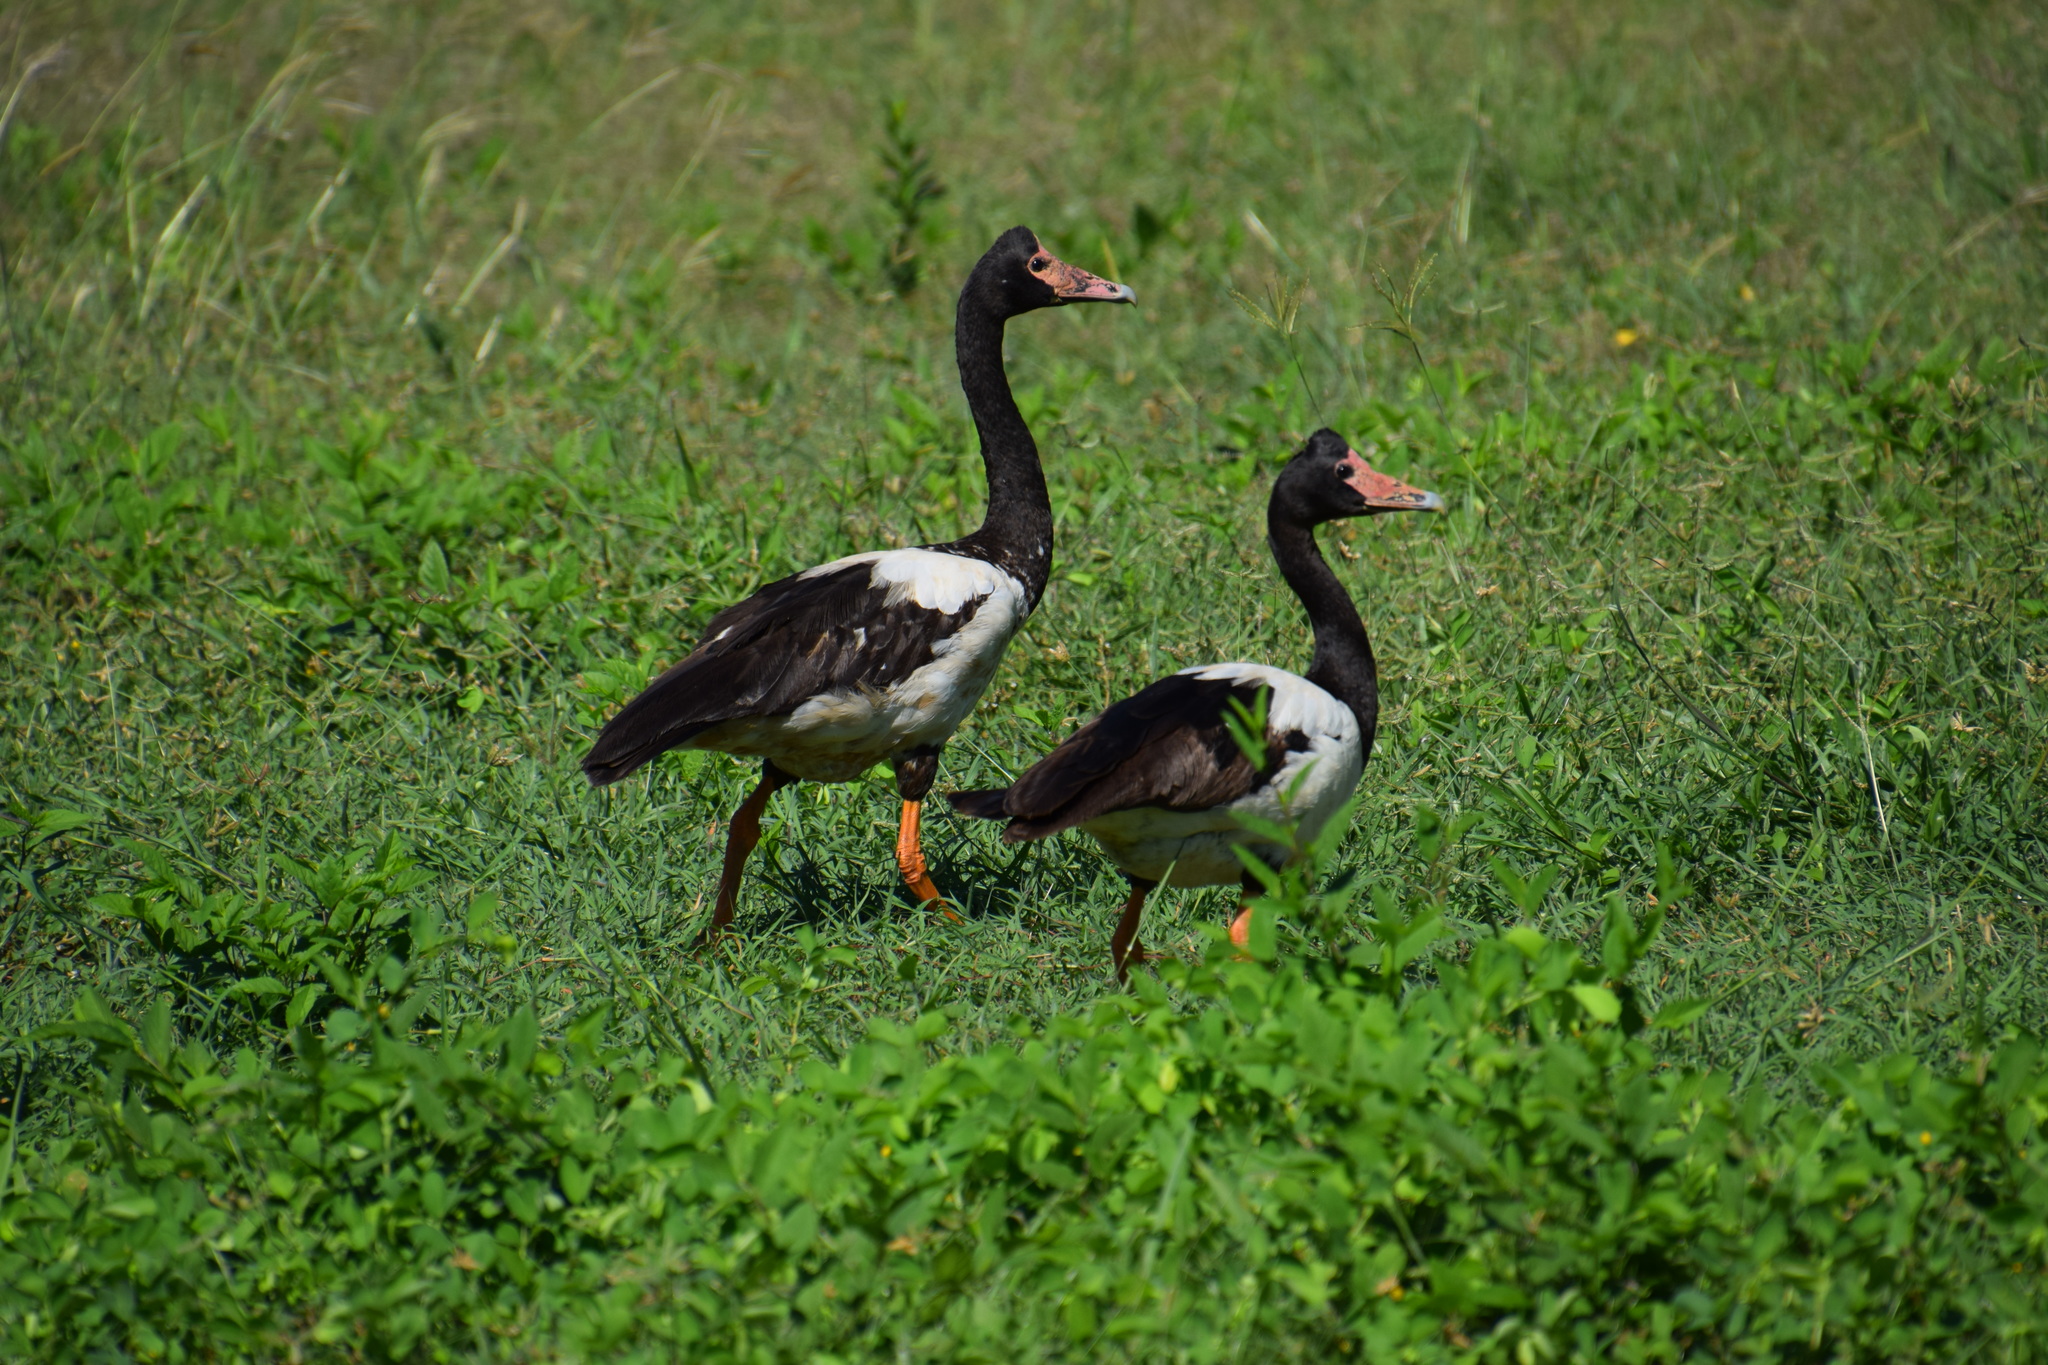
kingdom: Animalia
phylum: Chordata
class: Aves
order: Anseriformes
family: Anseranatidae
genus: Anseranas
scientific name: Anseranas semipalmata
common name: Magpie goose
